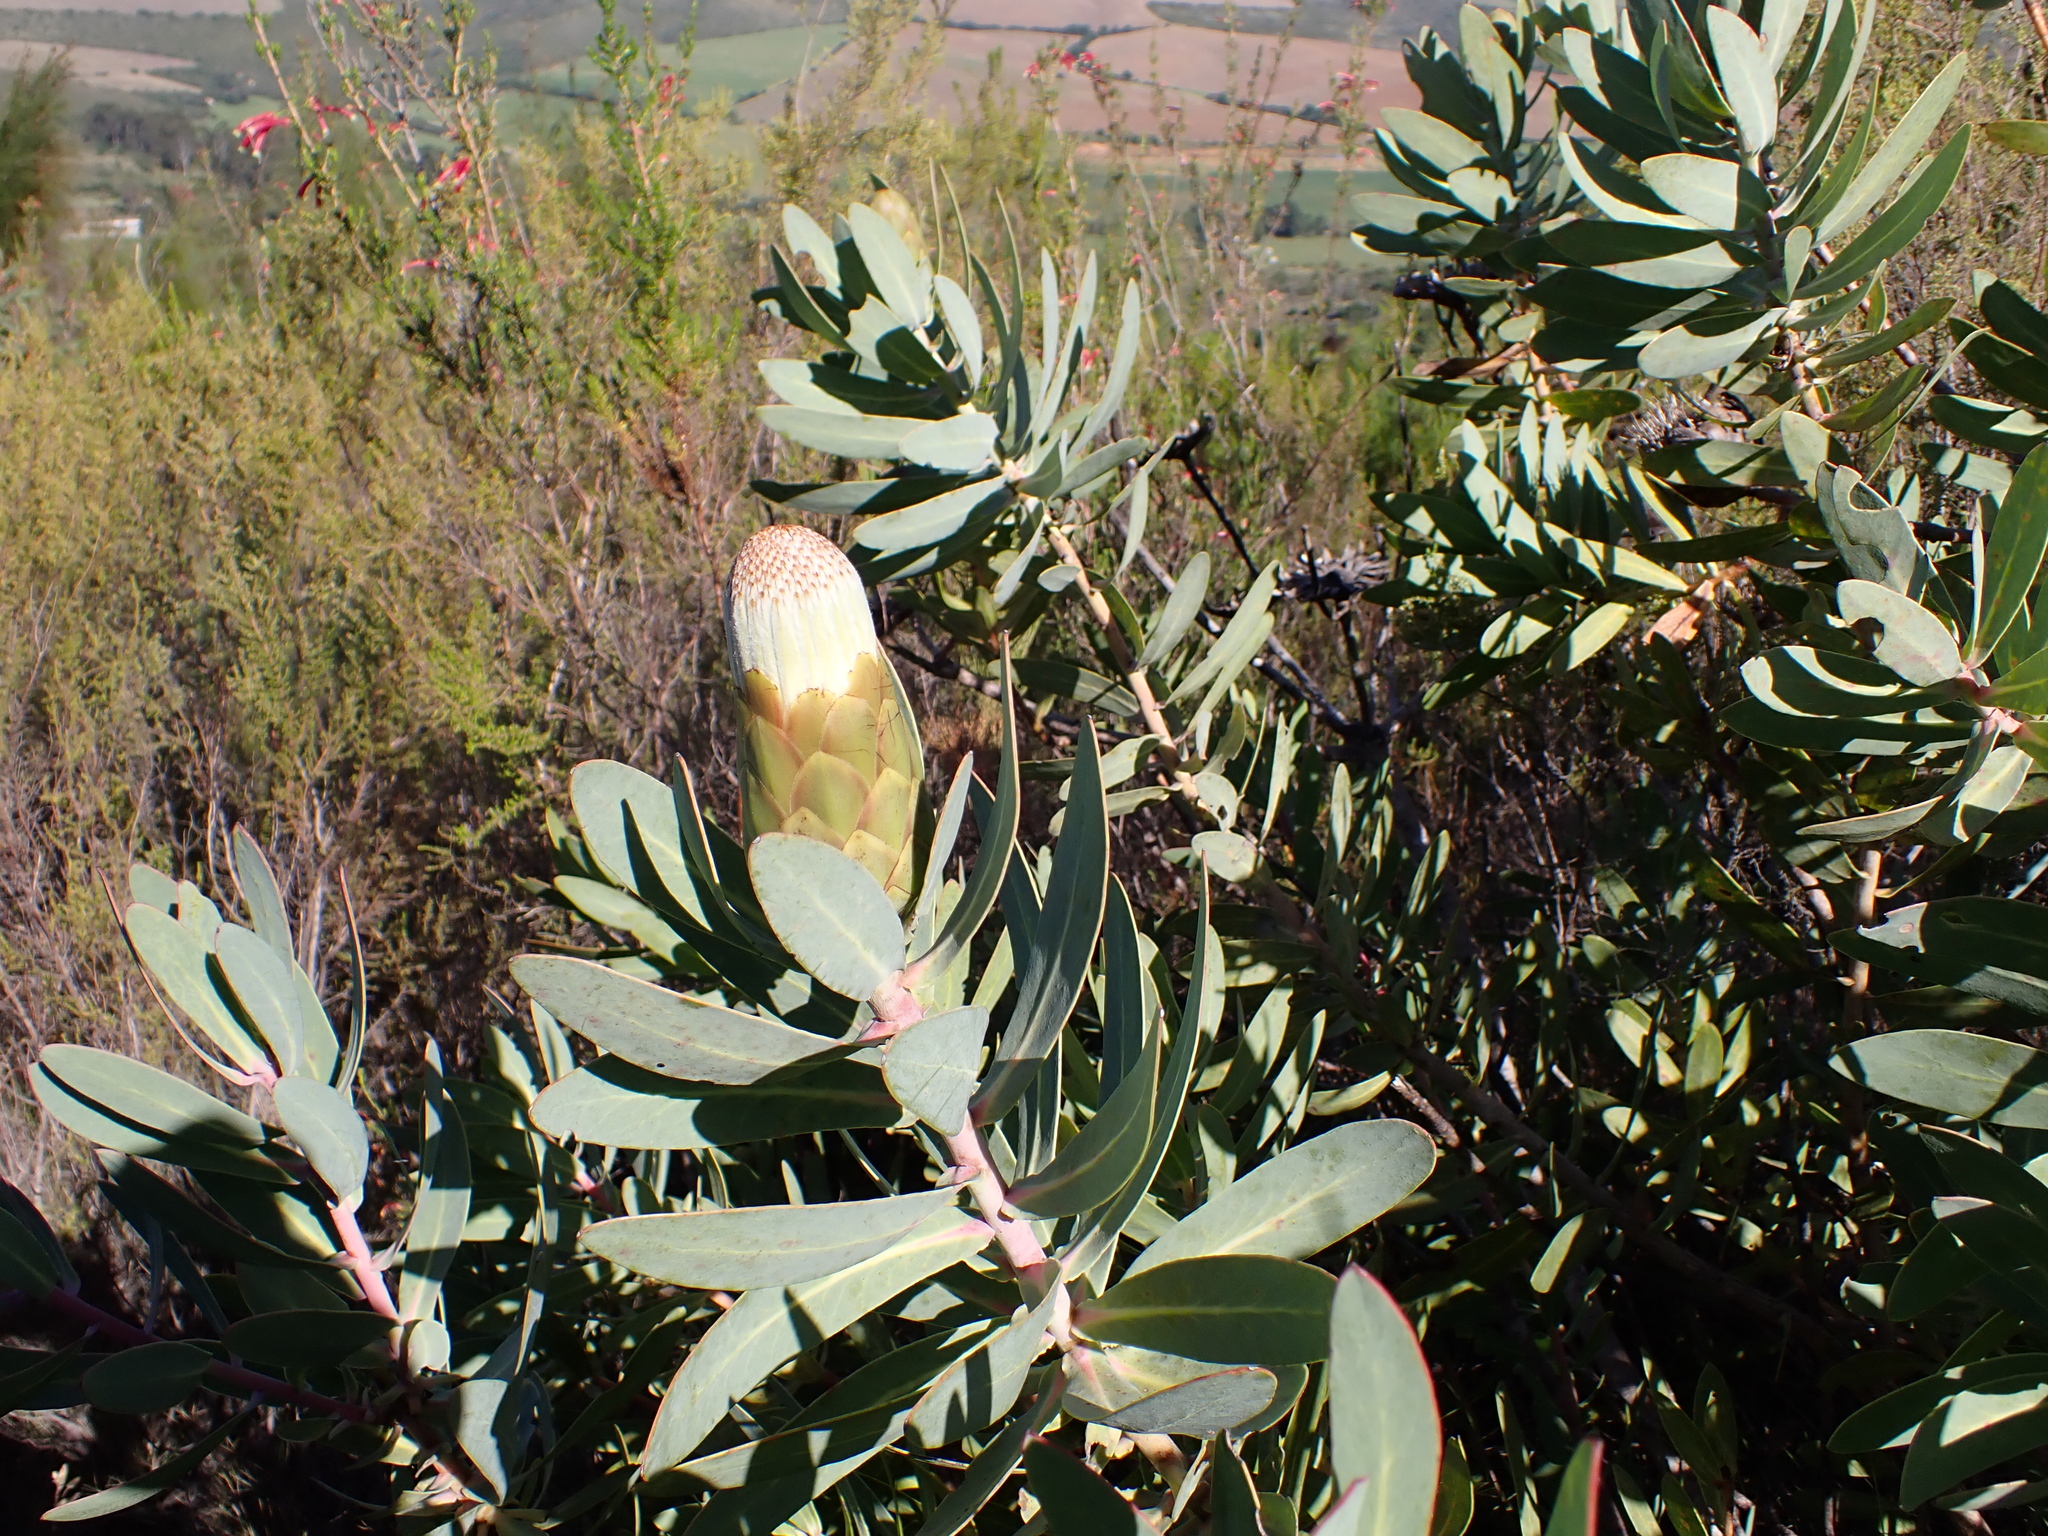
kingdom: Plantae
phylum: Tracheophyta
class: Magnoliopsida
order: Proteales
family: Proteaceae
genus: Protea
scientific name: Protea nitida
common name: Tree protea
